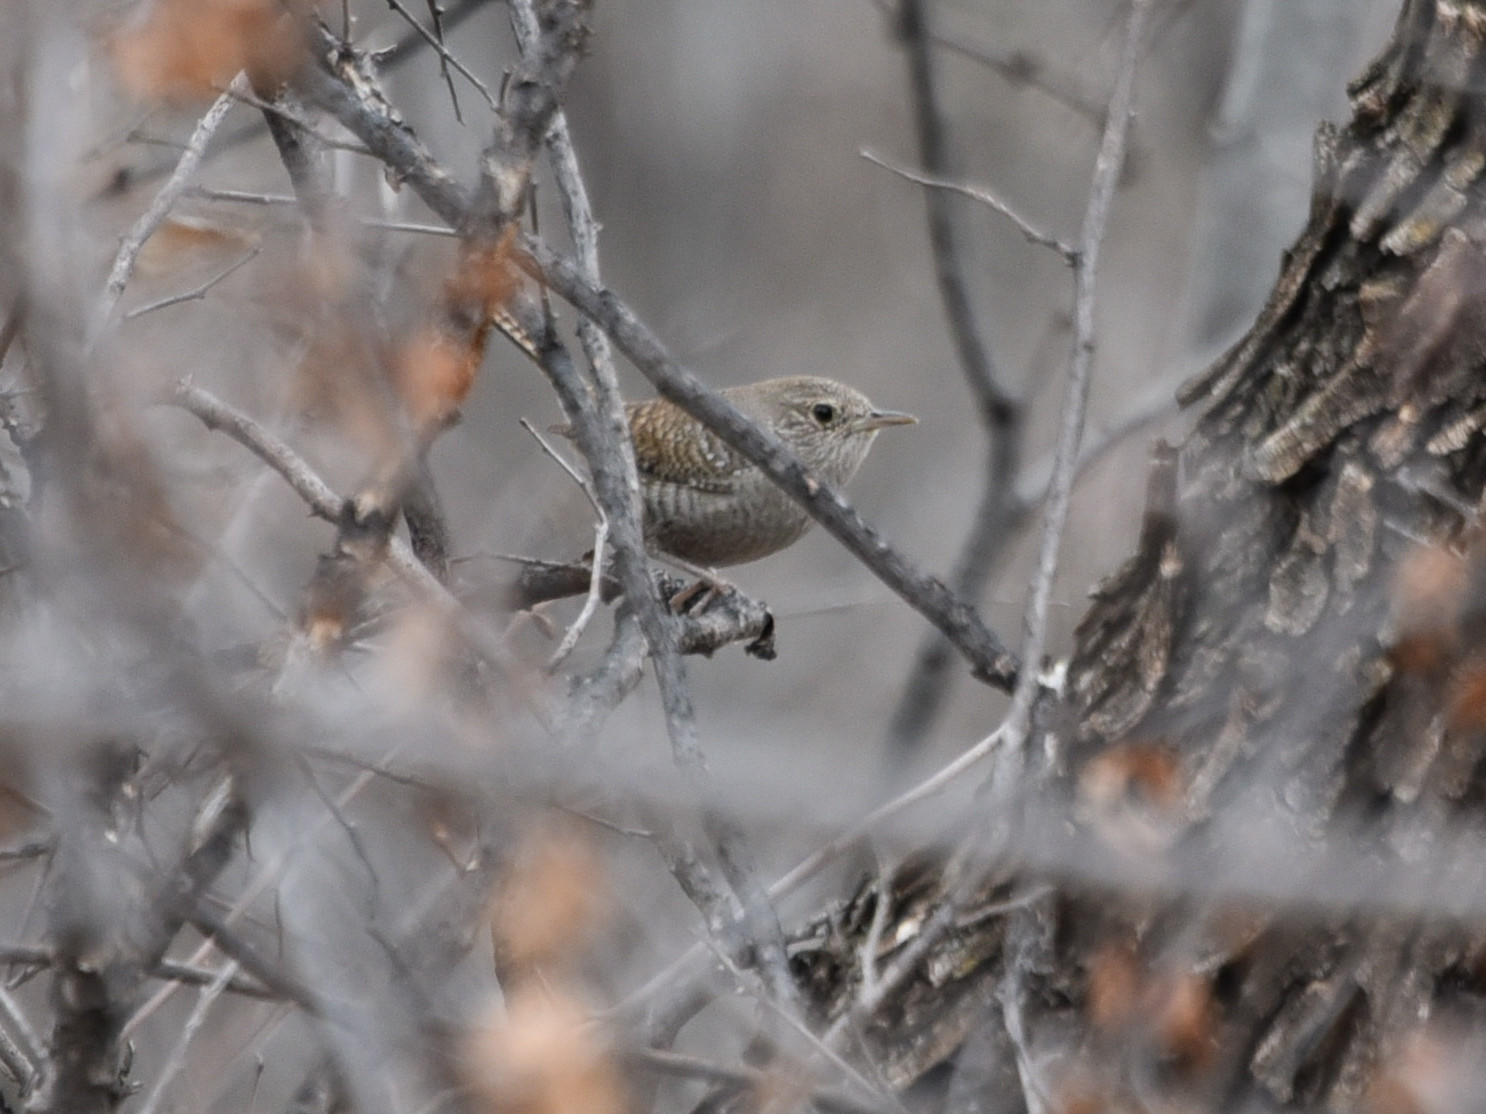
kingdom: Animalia
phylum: Chordata
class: Aves
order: Passeriformes
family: Troglodytidae
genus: Troglodytes
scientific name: Troglodytes aedon
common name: House wren
